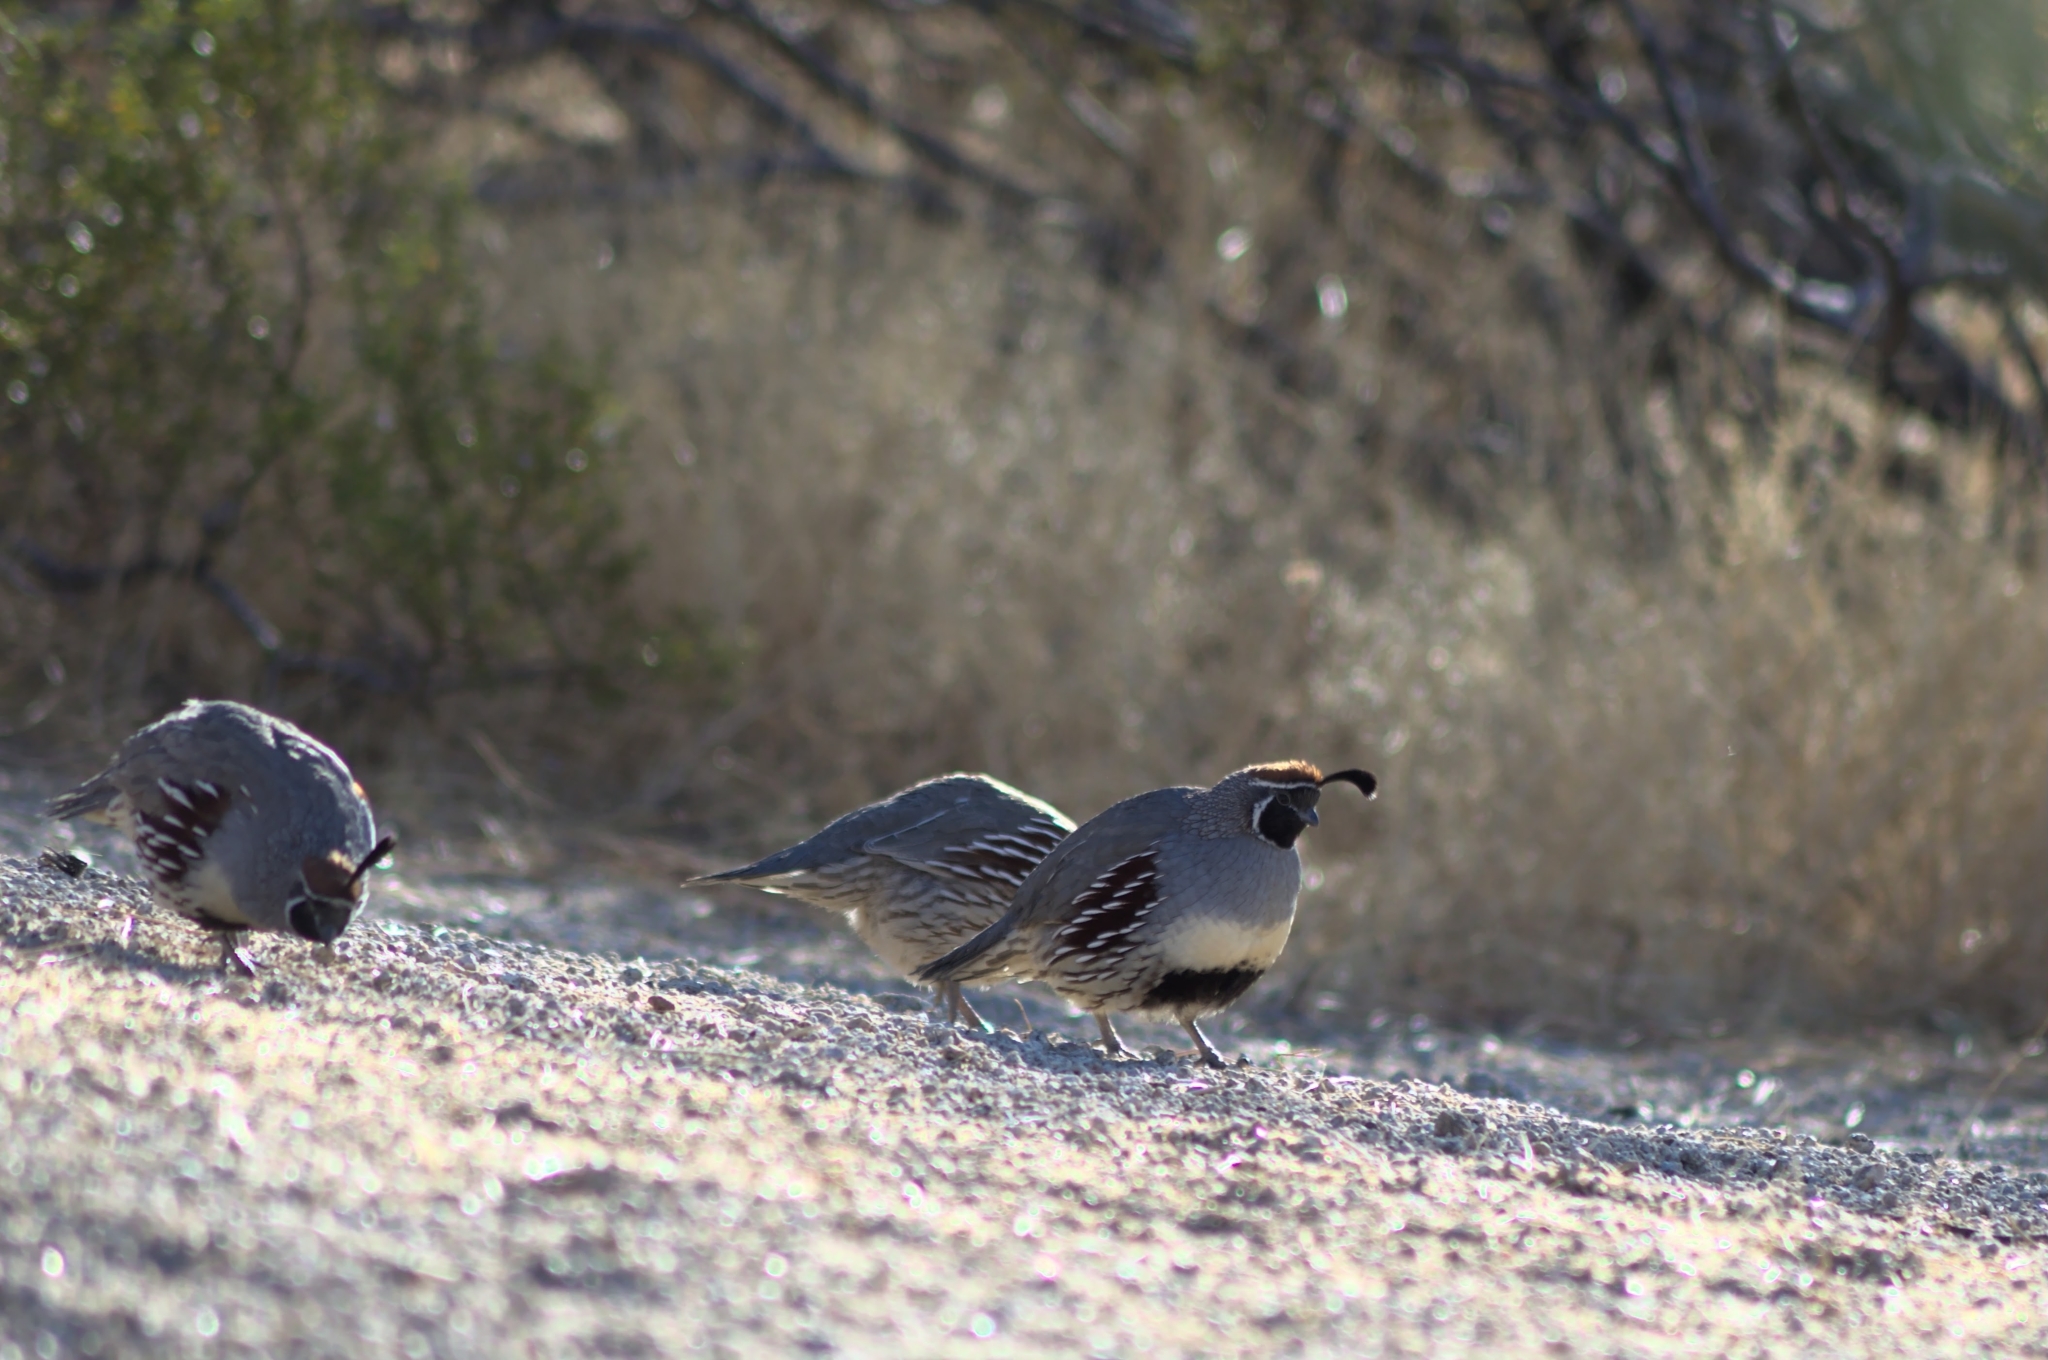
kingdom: Animalia
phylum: Chordata
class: Aves
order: Galliformes
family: Odontophoridae
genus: Callipepla
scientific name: Callipepla gambelii
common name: Gambel's quail
